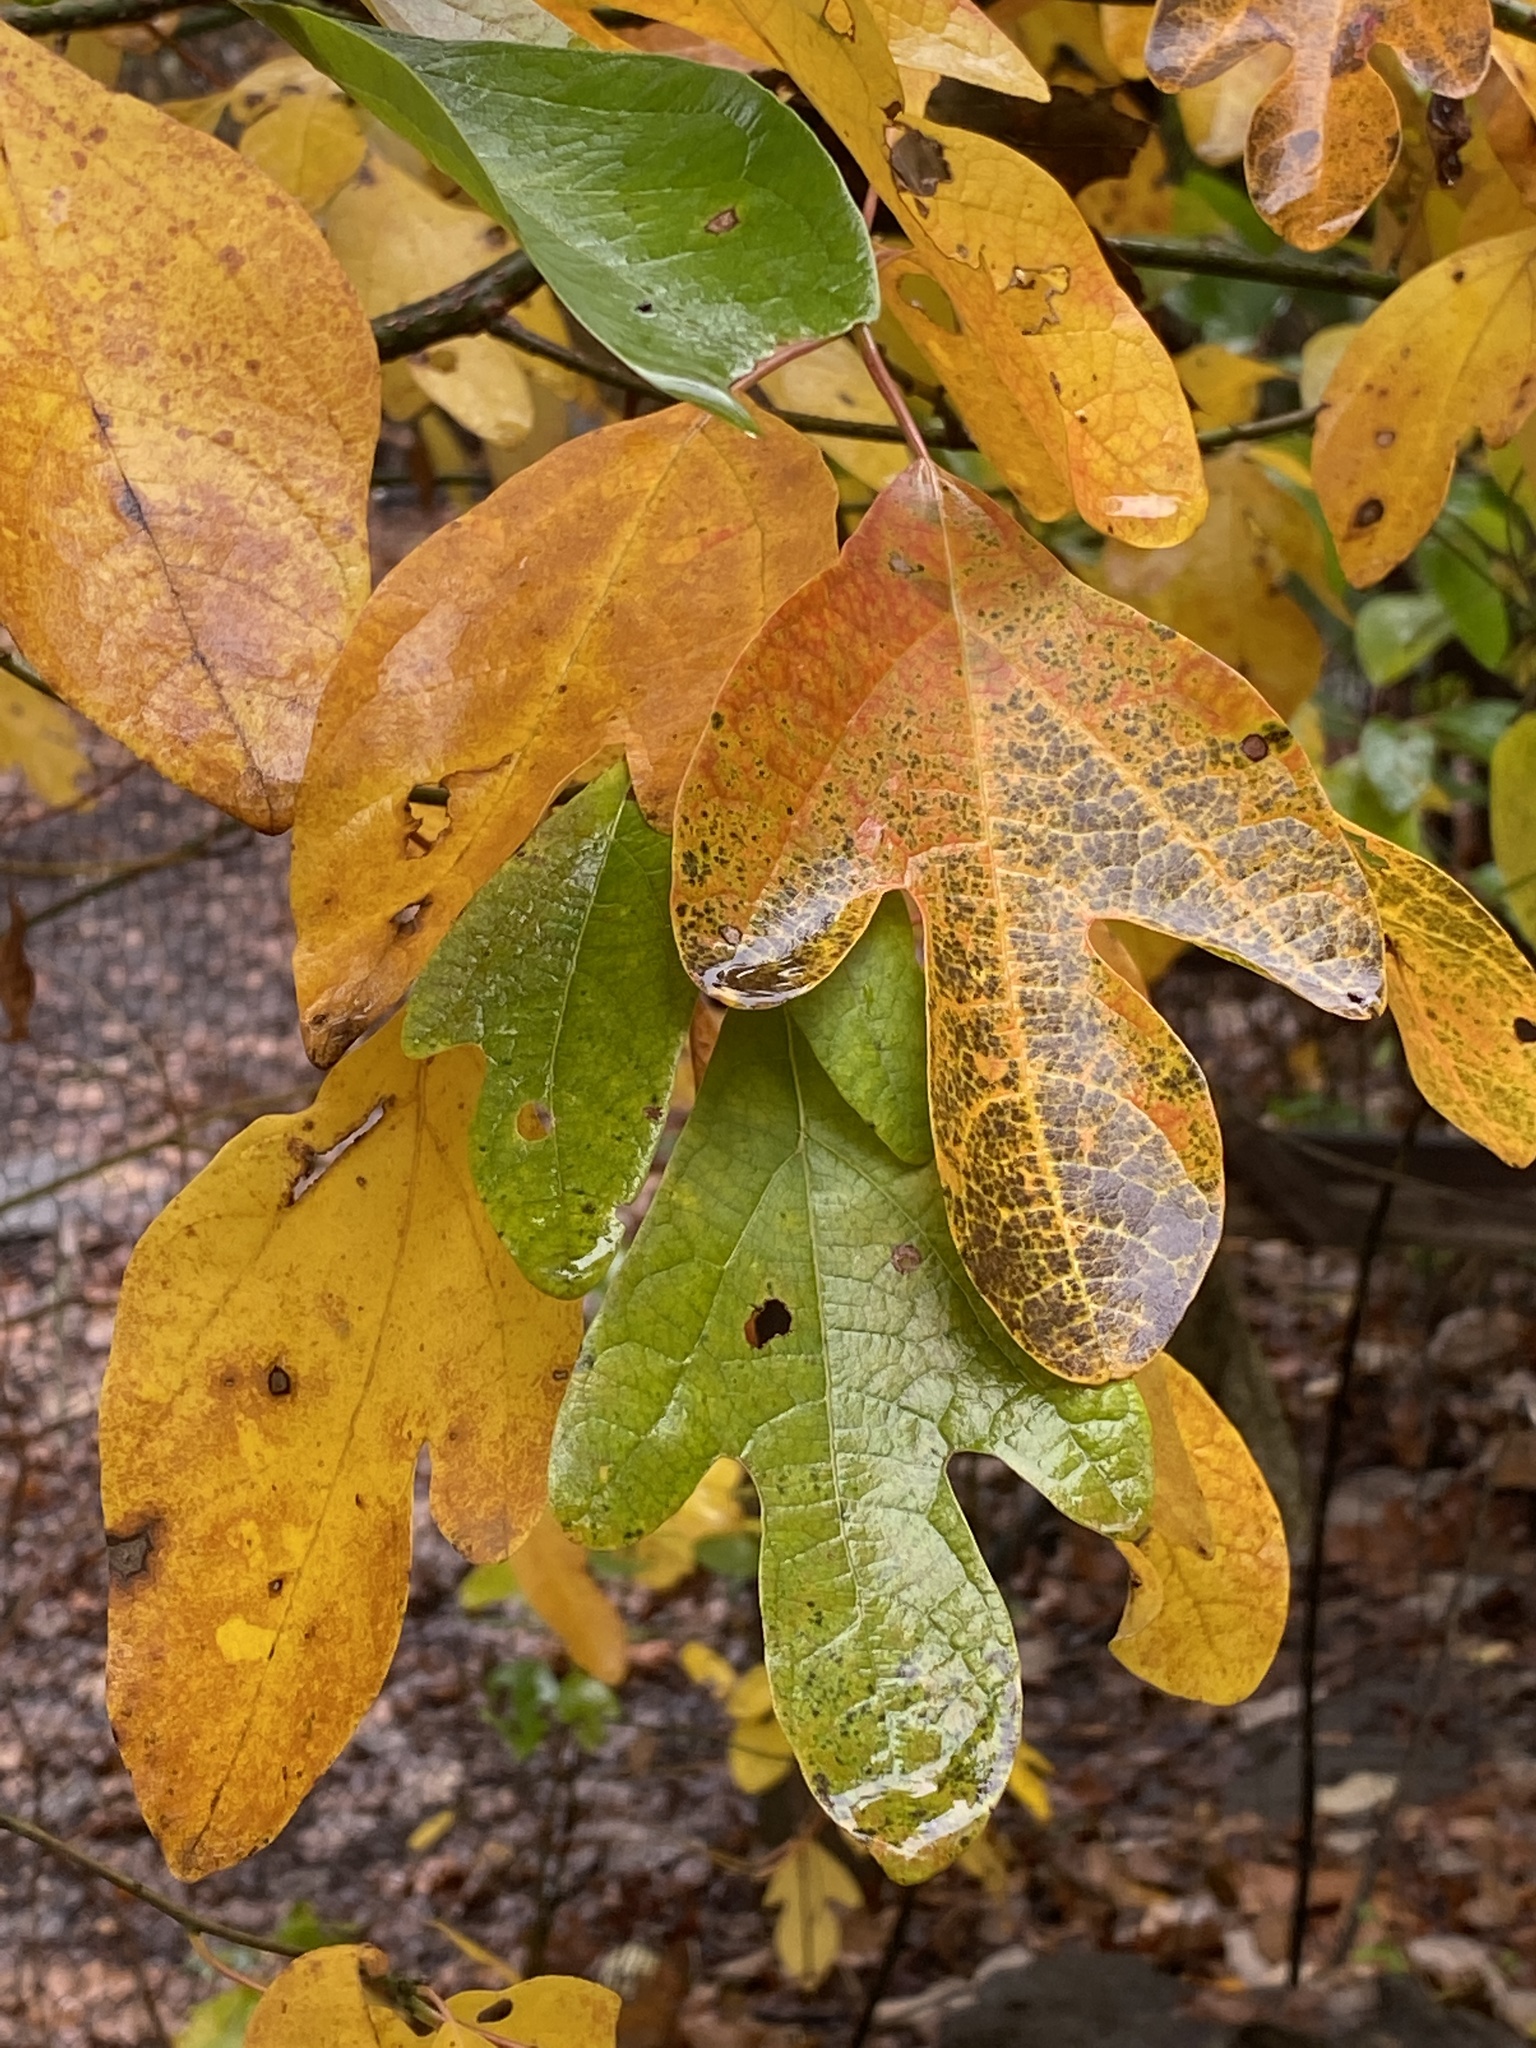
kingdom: Plantae
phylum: Tracheophyta
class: Magnoliopsida
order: Laurales
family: Lauraceae
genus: Sassafras
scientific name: Sassafras albidum
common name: Sassafras
